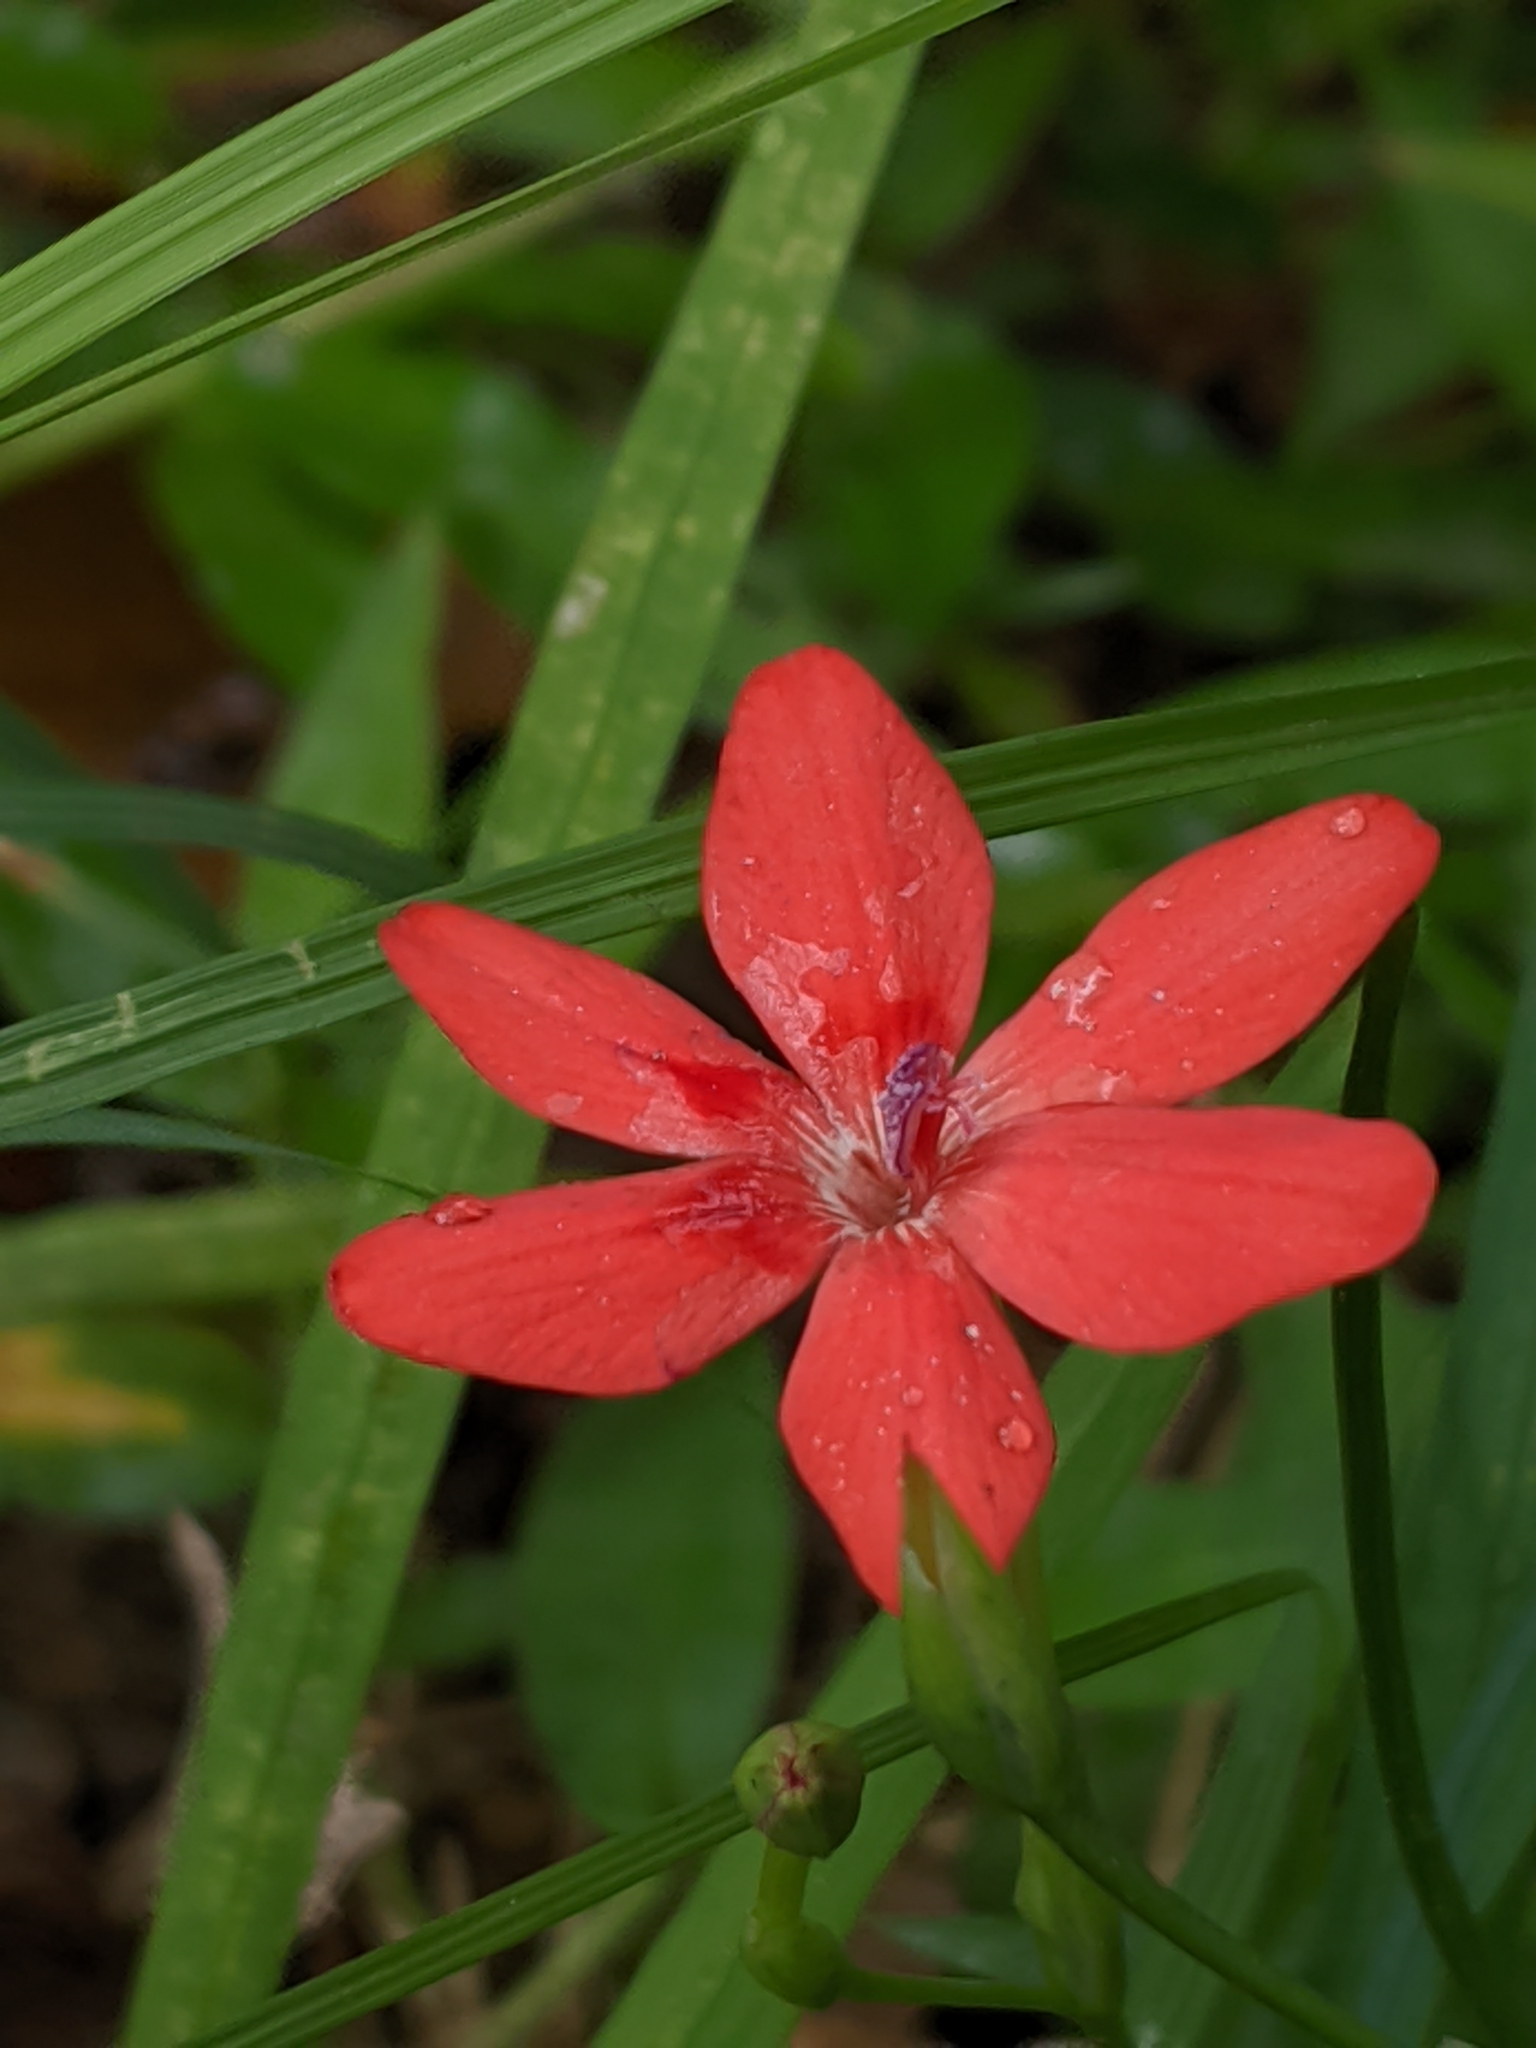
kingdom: Plantae
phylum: Tracheophyta
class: Liliopsida
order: Asparagales
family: Iridaceae
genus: Freesia
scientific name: Freesia laxa
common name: False freesia
